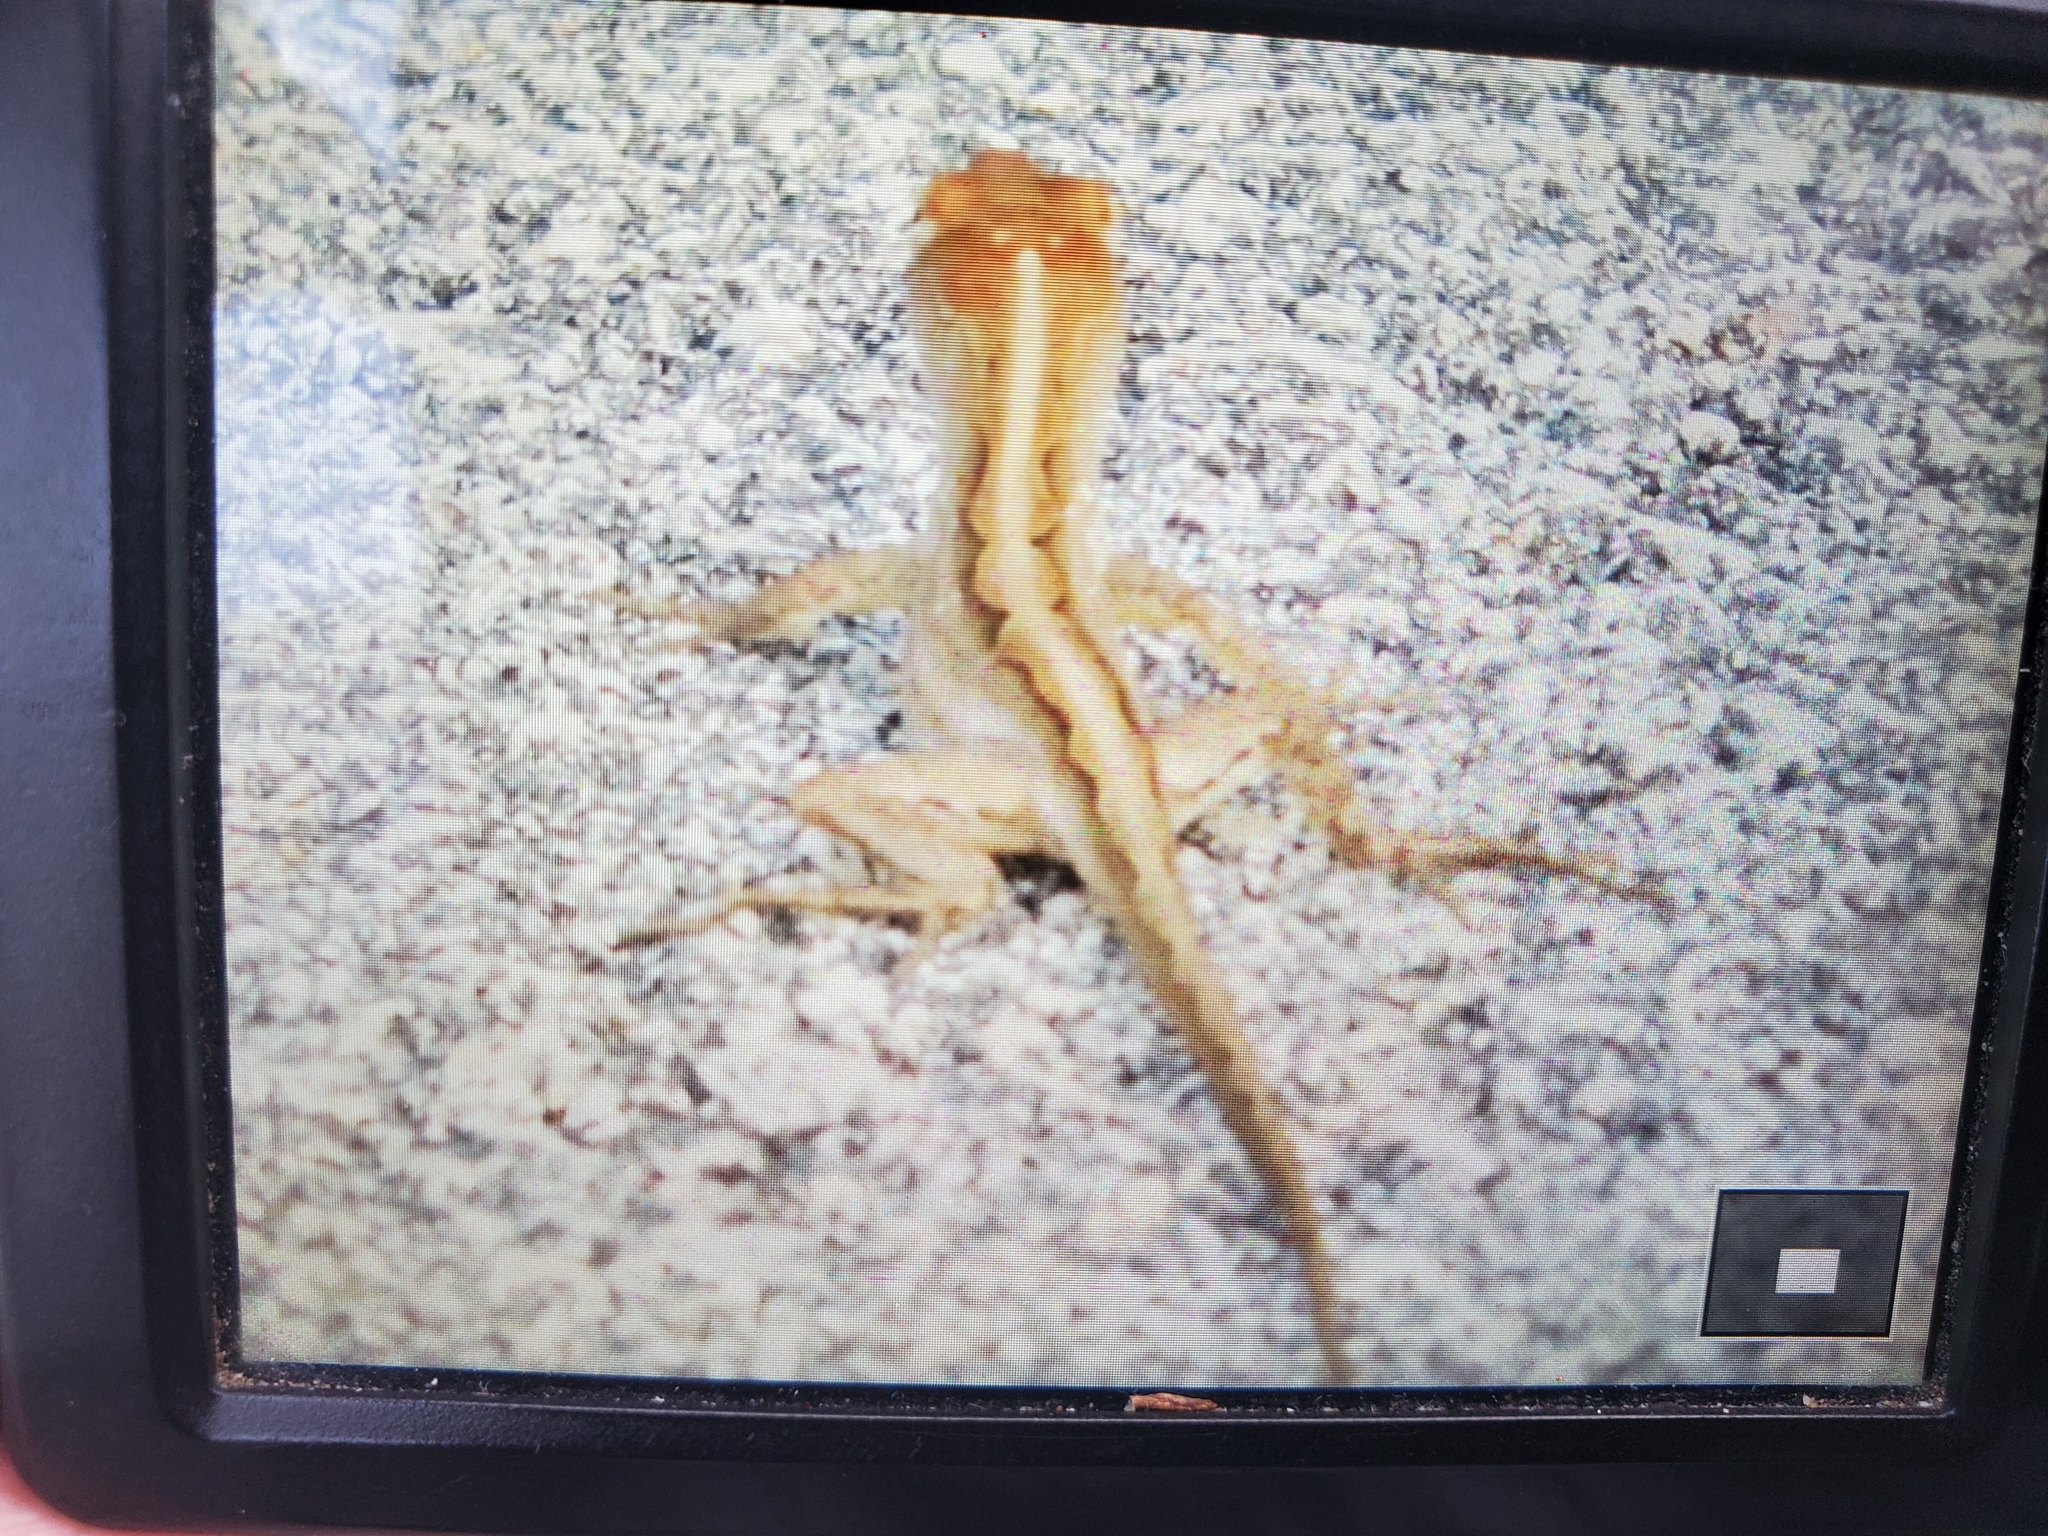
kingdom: Animalia
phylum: Chordata
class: Squamata
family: Dactyloidae
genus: Anolis
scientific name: Anolis sagrei
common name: Brown anole
